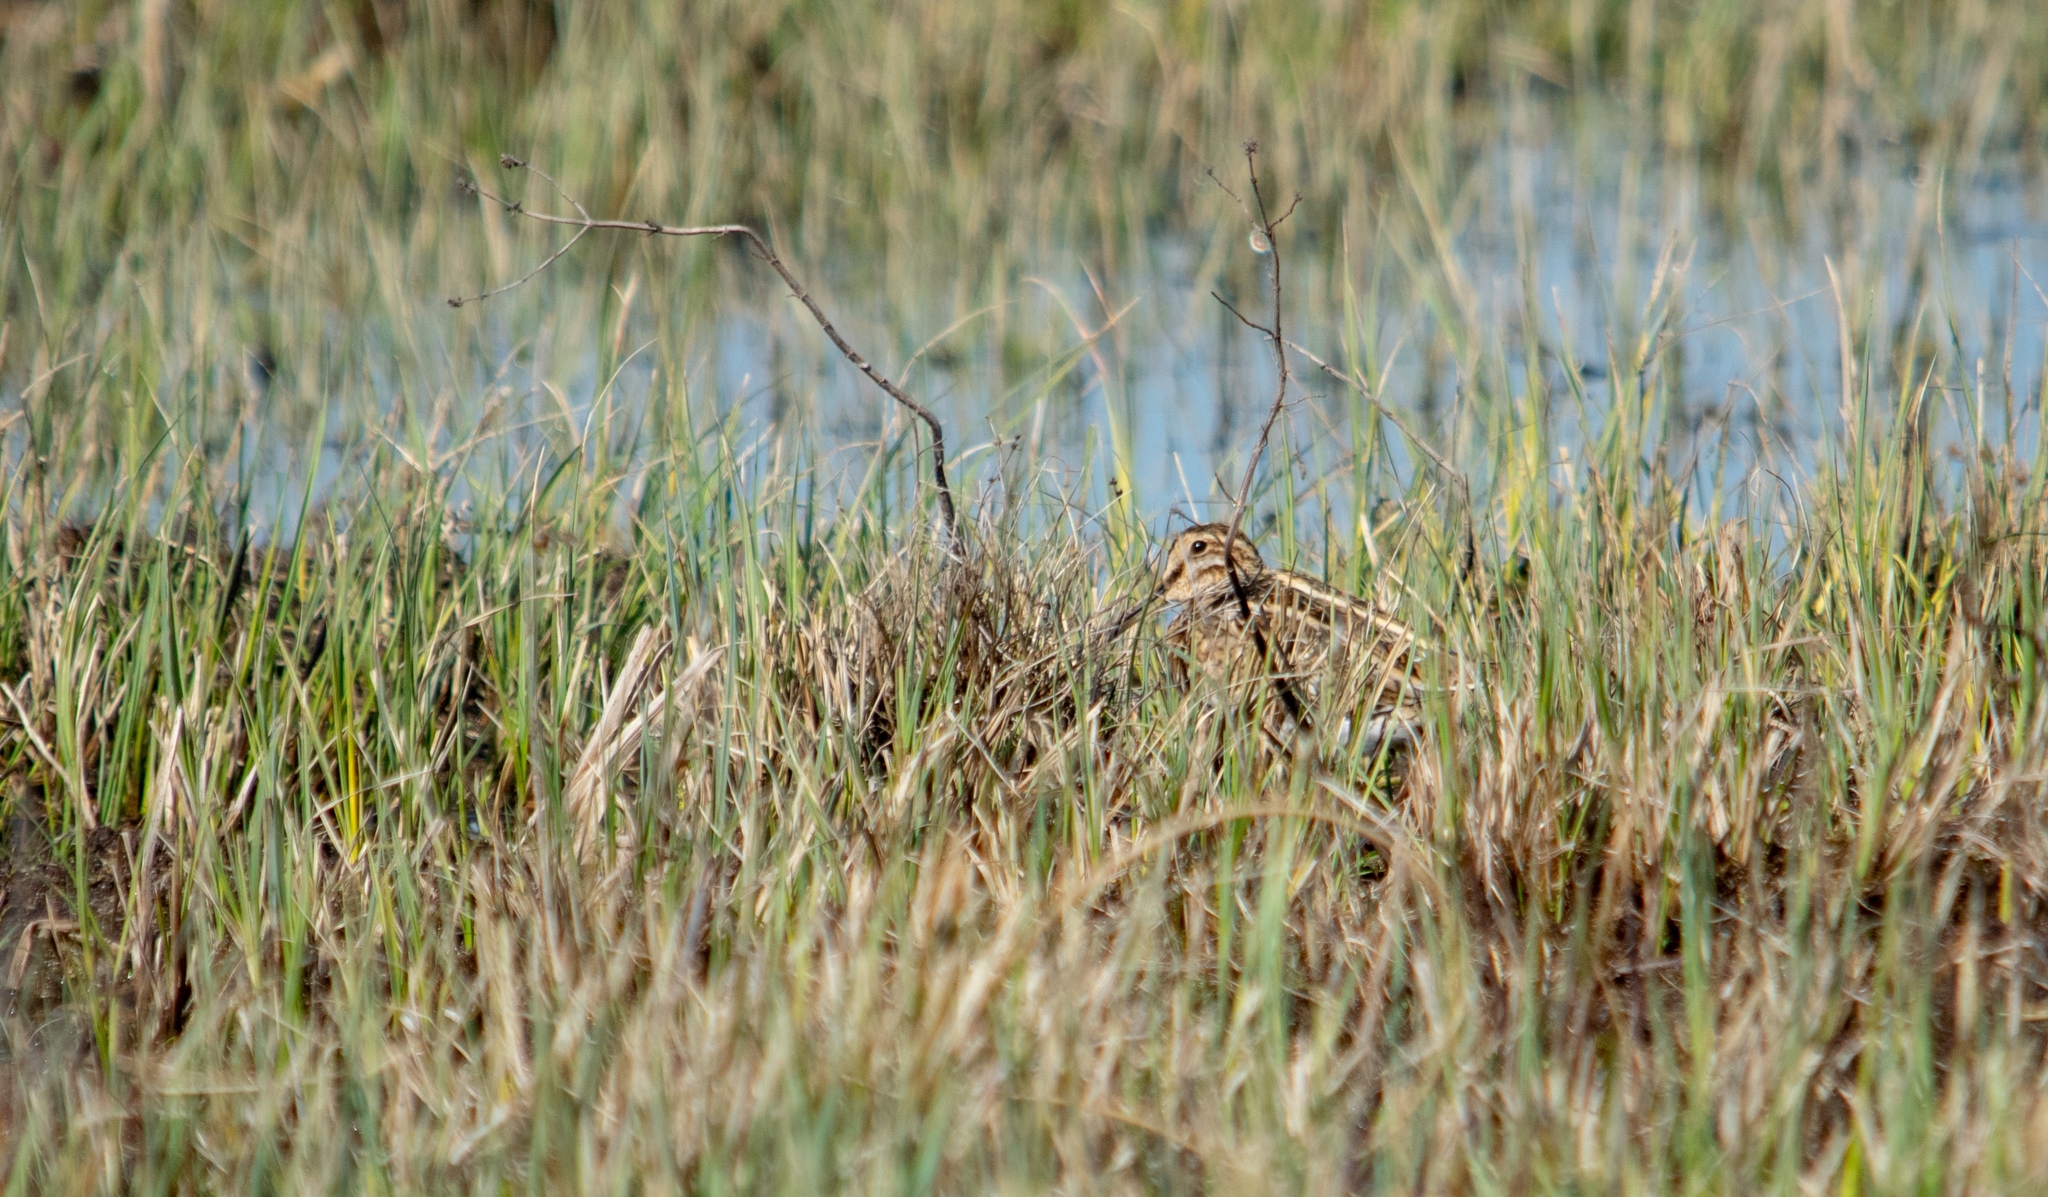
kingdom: Animalia
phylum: Chordata
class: Aves
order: Charadriiformes
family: Scolopacidae
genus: Gallinago
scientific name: Gallinago gallinago
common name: Common snipe
